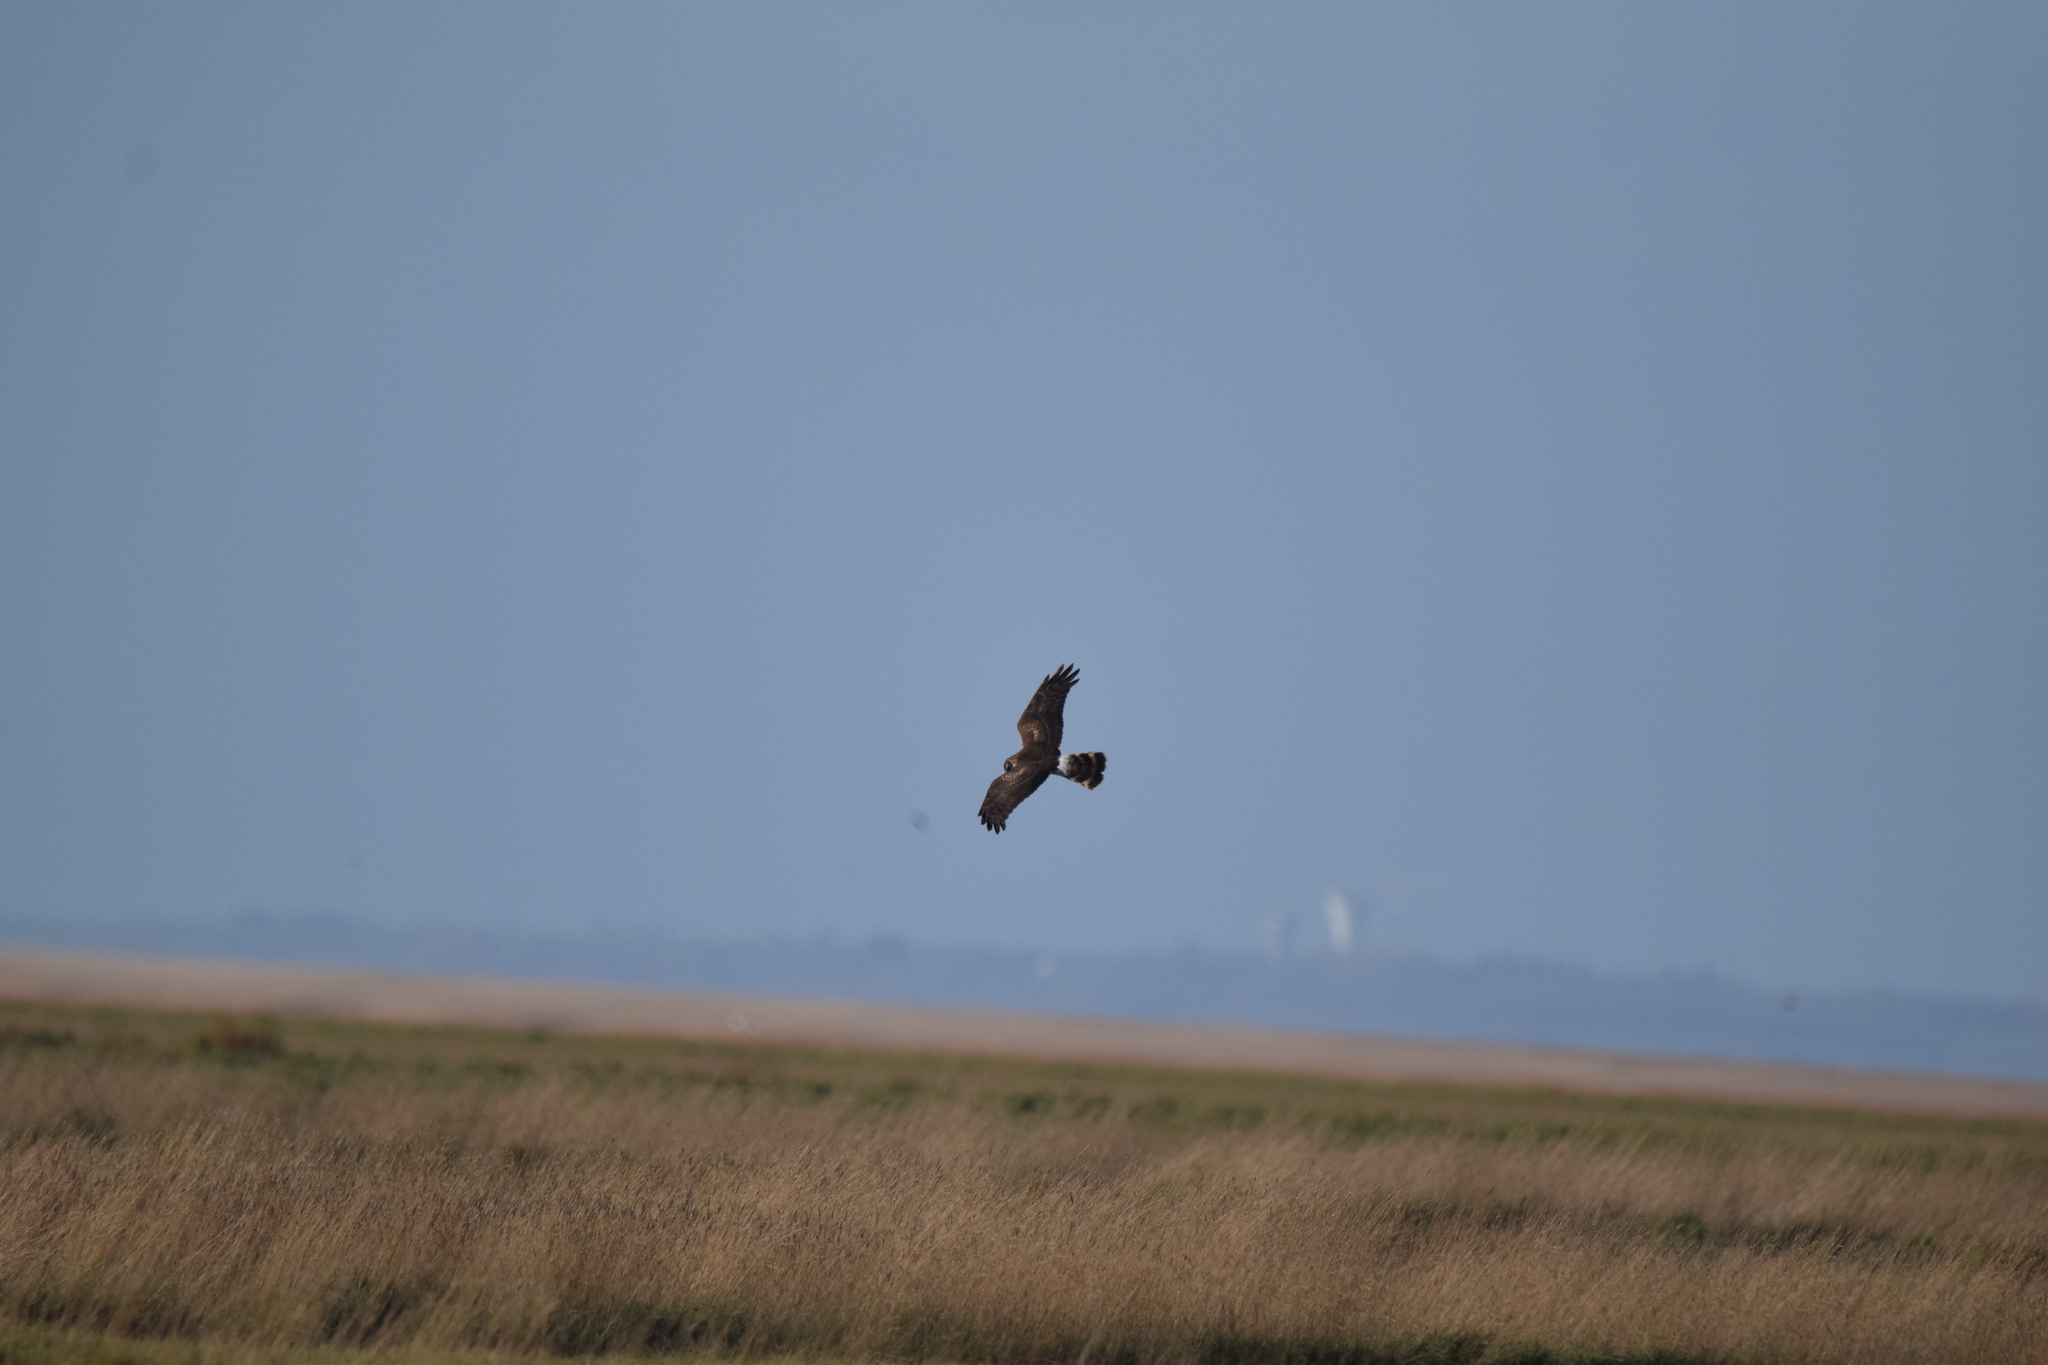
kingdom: Animalia
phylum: Chordata
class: Aves
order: Accipitriformes
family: Accipitridae
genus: Circus
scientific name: Circus cyaneus
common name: Hen harrier
